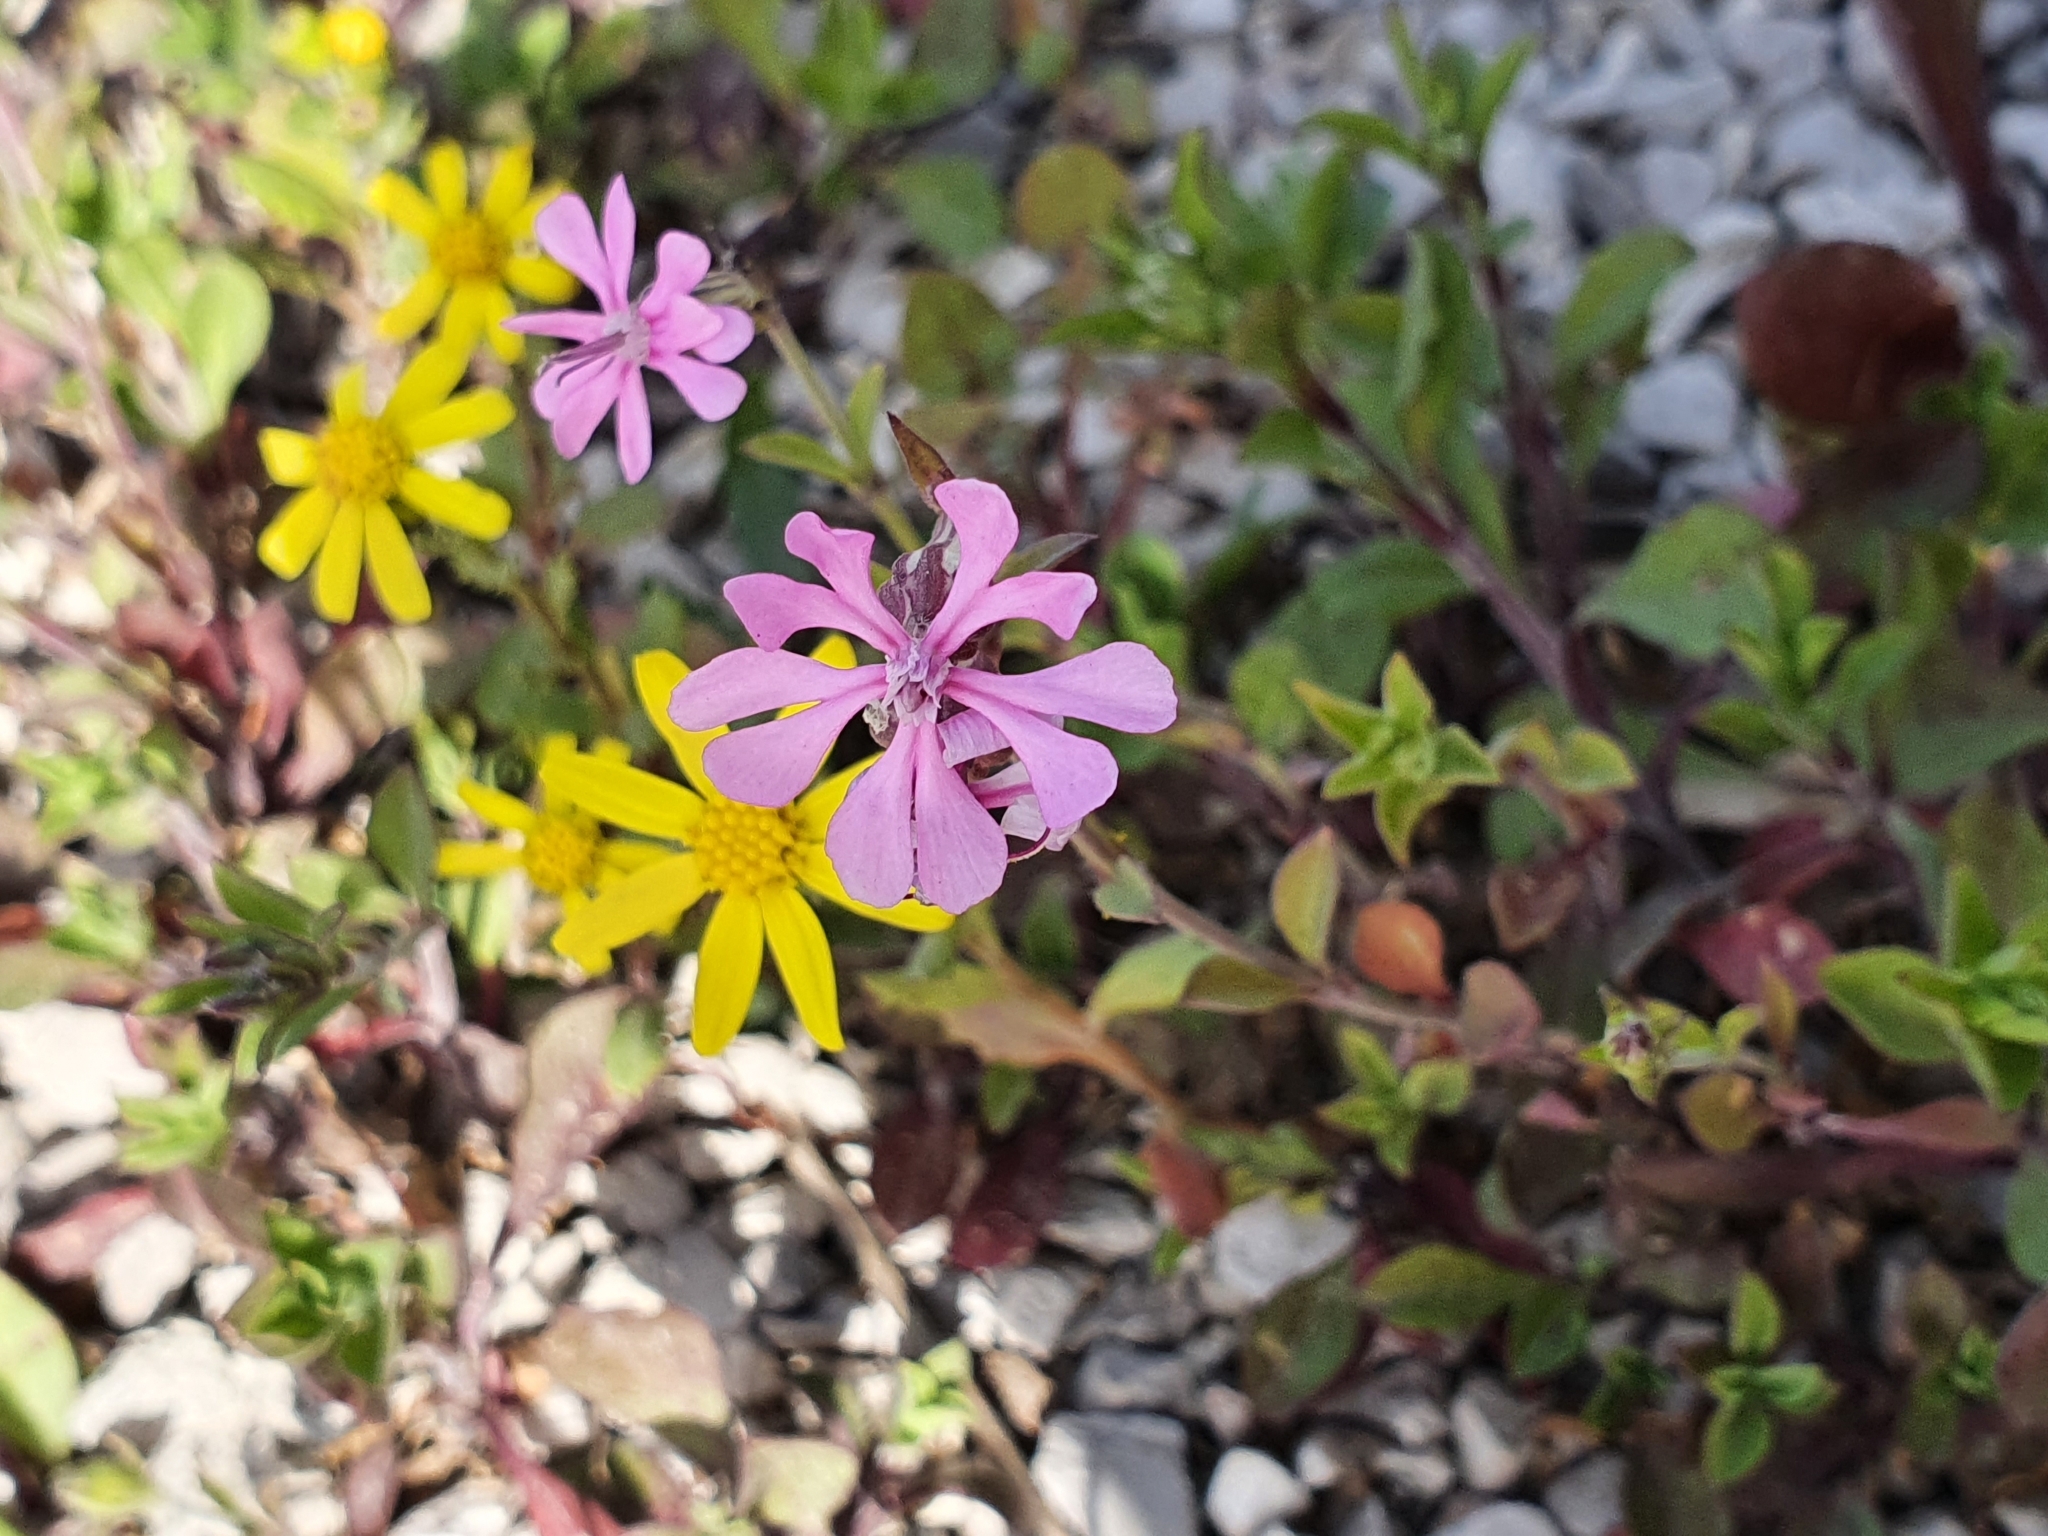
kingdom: Plantae
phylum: Tracheophyta
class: Magnoliopsida
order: Caryophyllales
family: Caryophyllaceae
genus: Silene
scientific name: Silene colorata
